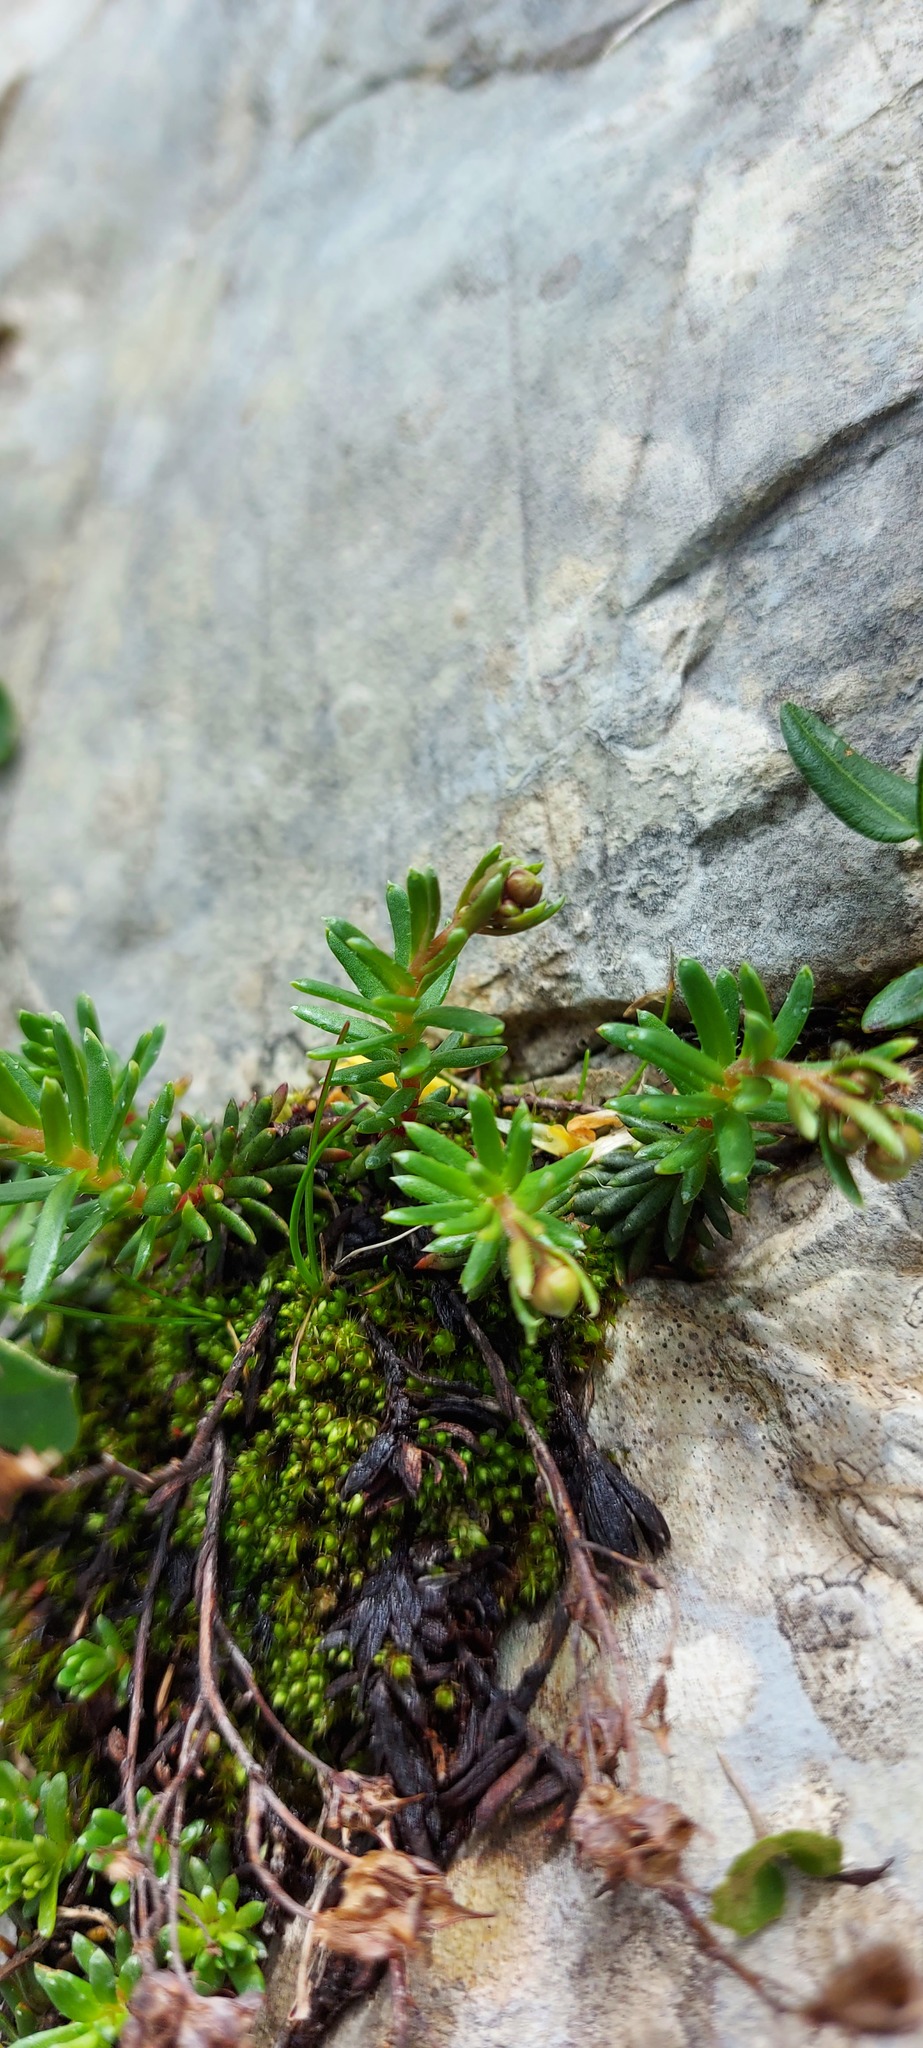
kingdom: Plantae
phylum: Tracheophyta
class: Magnoliopsida
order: Saxifragales
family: Saxifragaceae
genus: Saxifraga
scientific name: Saxifraga aizoides
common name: Yellow mountain saxifrage
